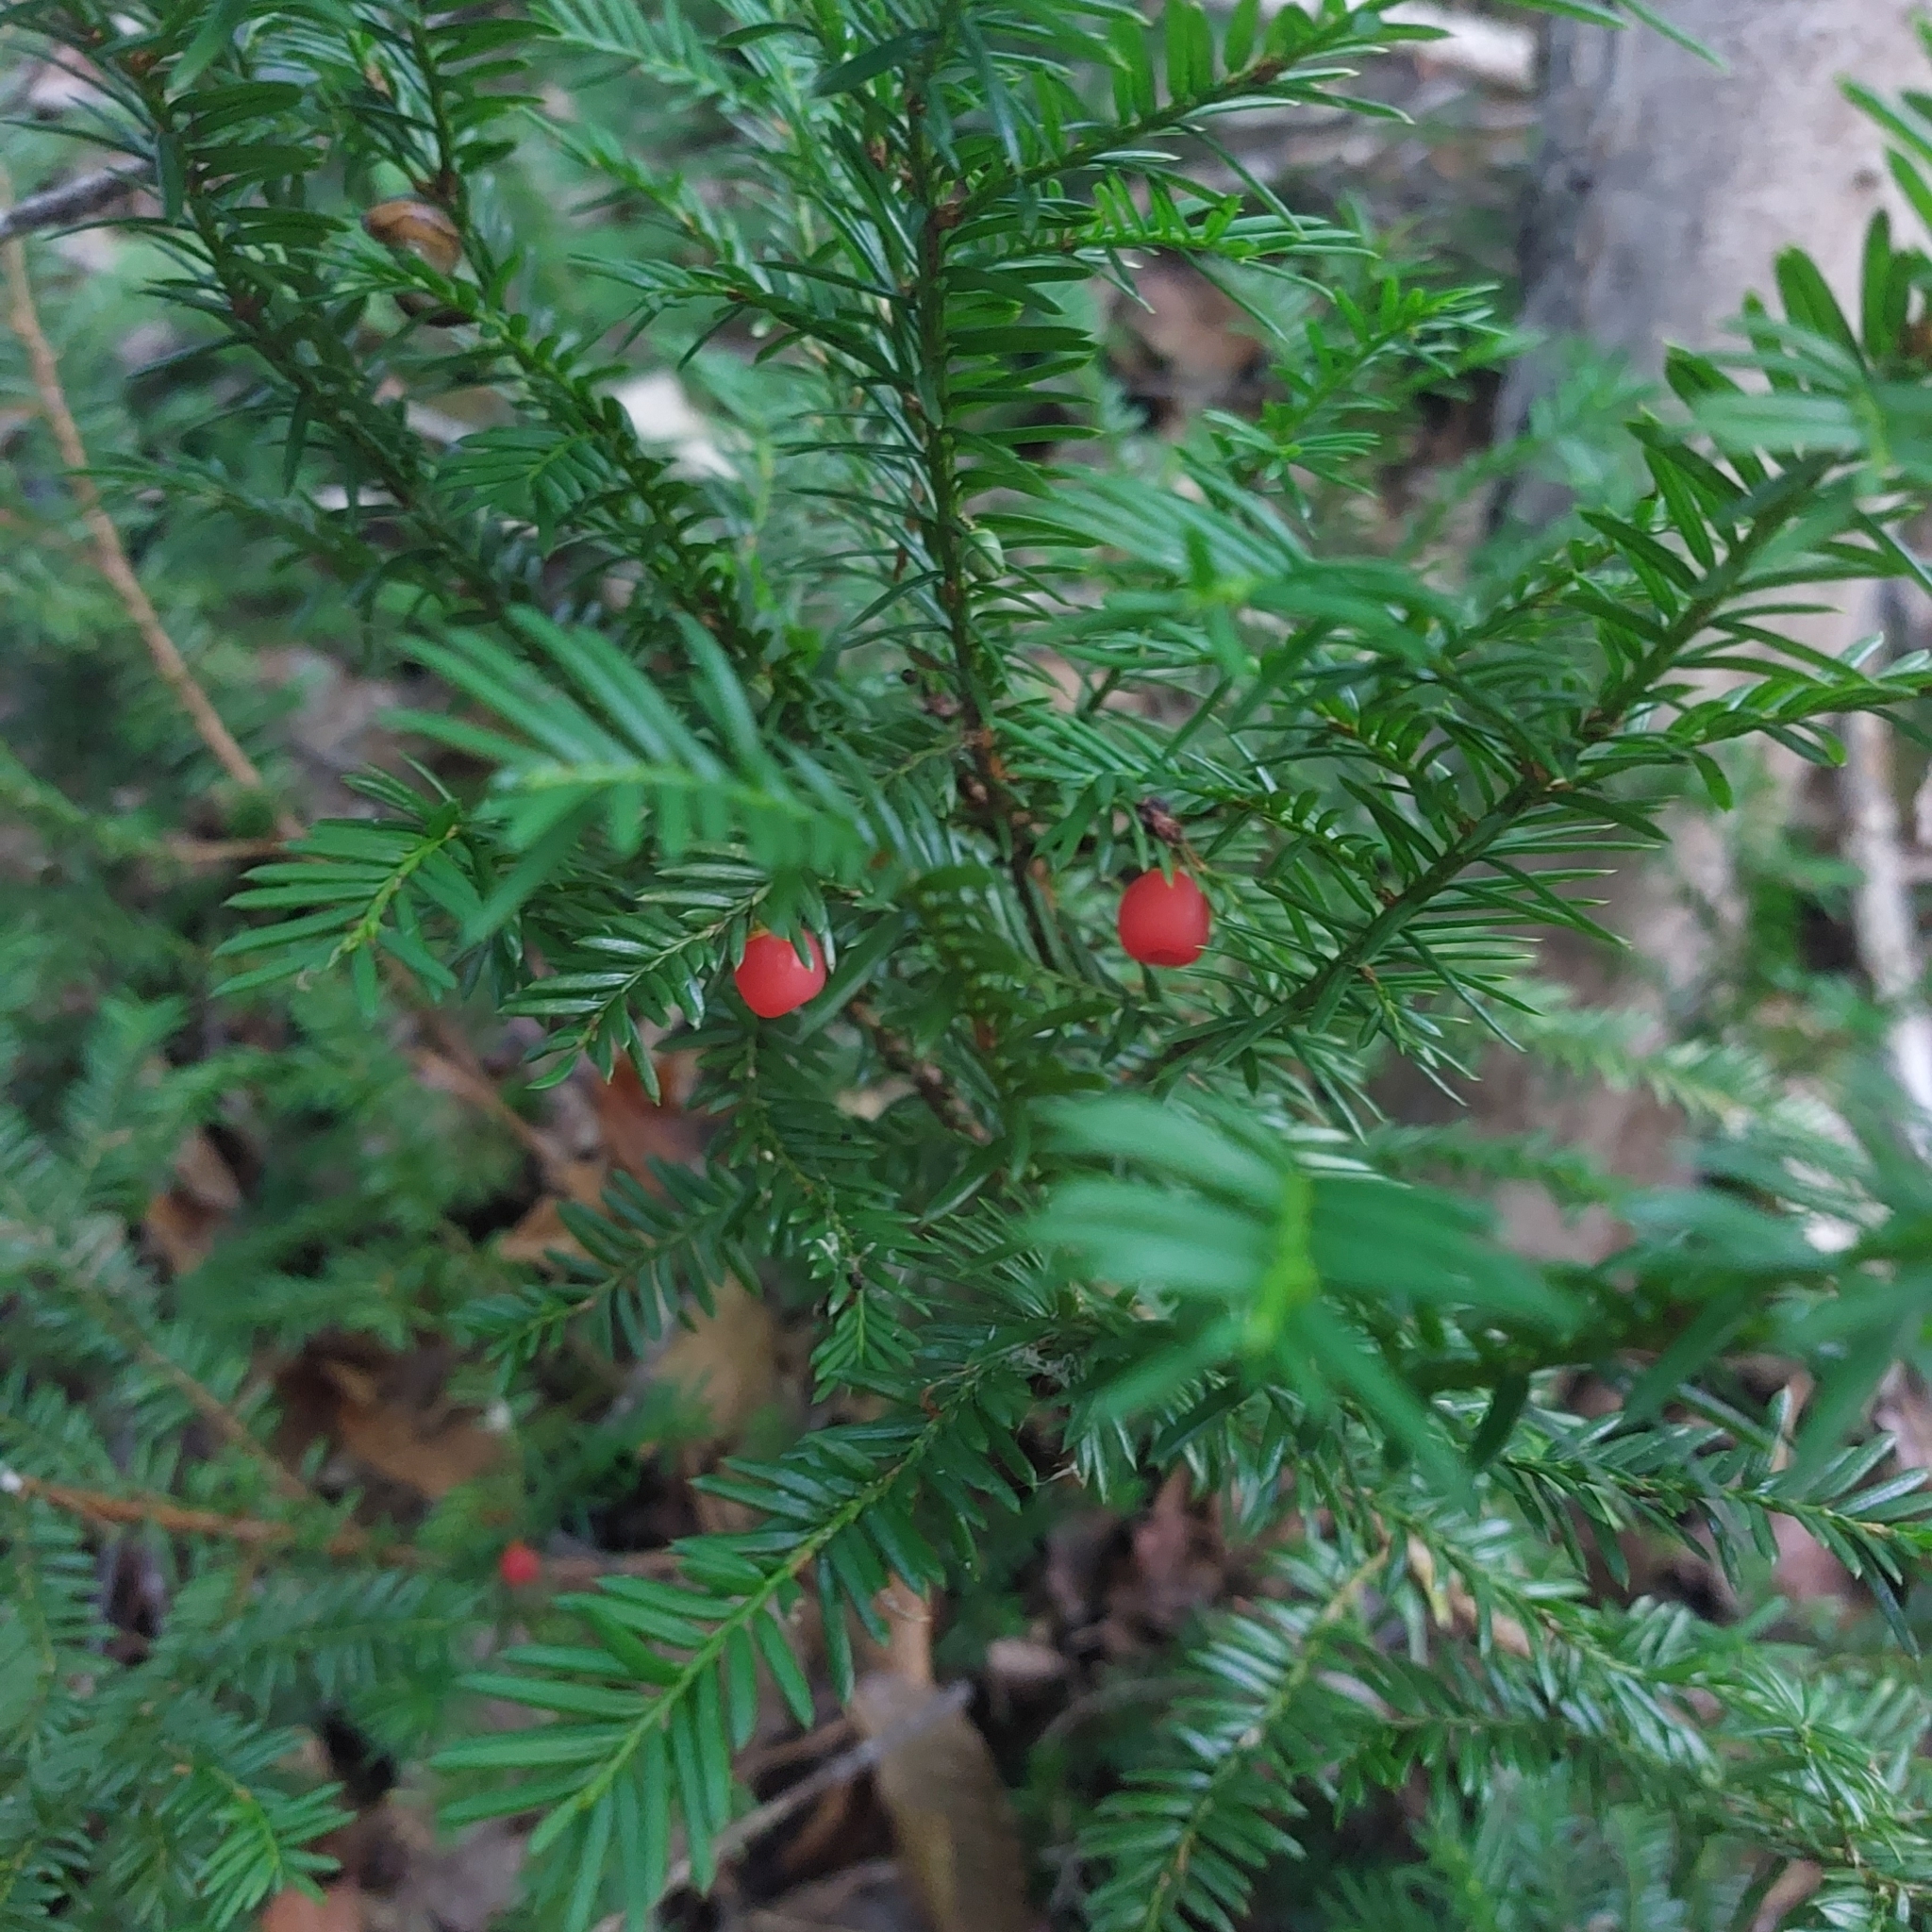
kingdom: Plantae
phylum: Tracheophyta
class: Pinopsida
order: Pinales
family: Taxaceae
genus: Taxus
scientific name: Taxus canadensis
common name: American yew
